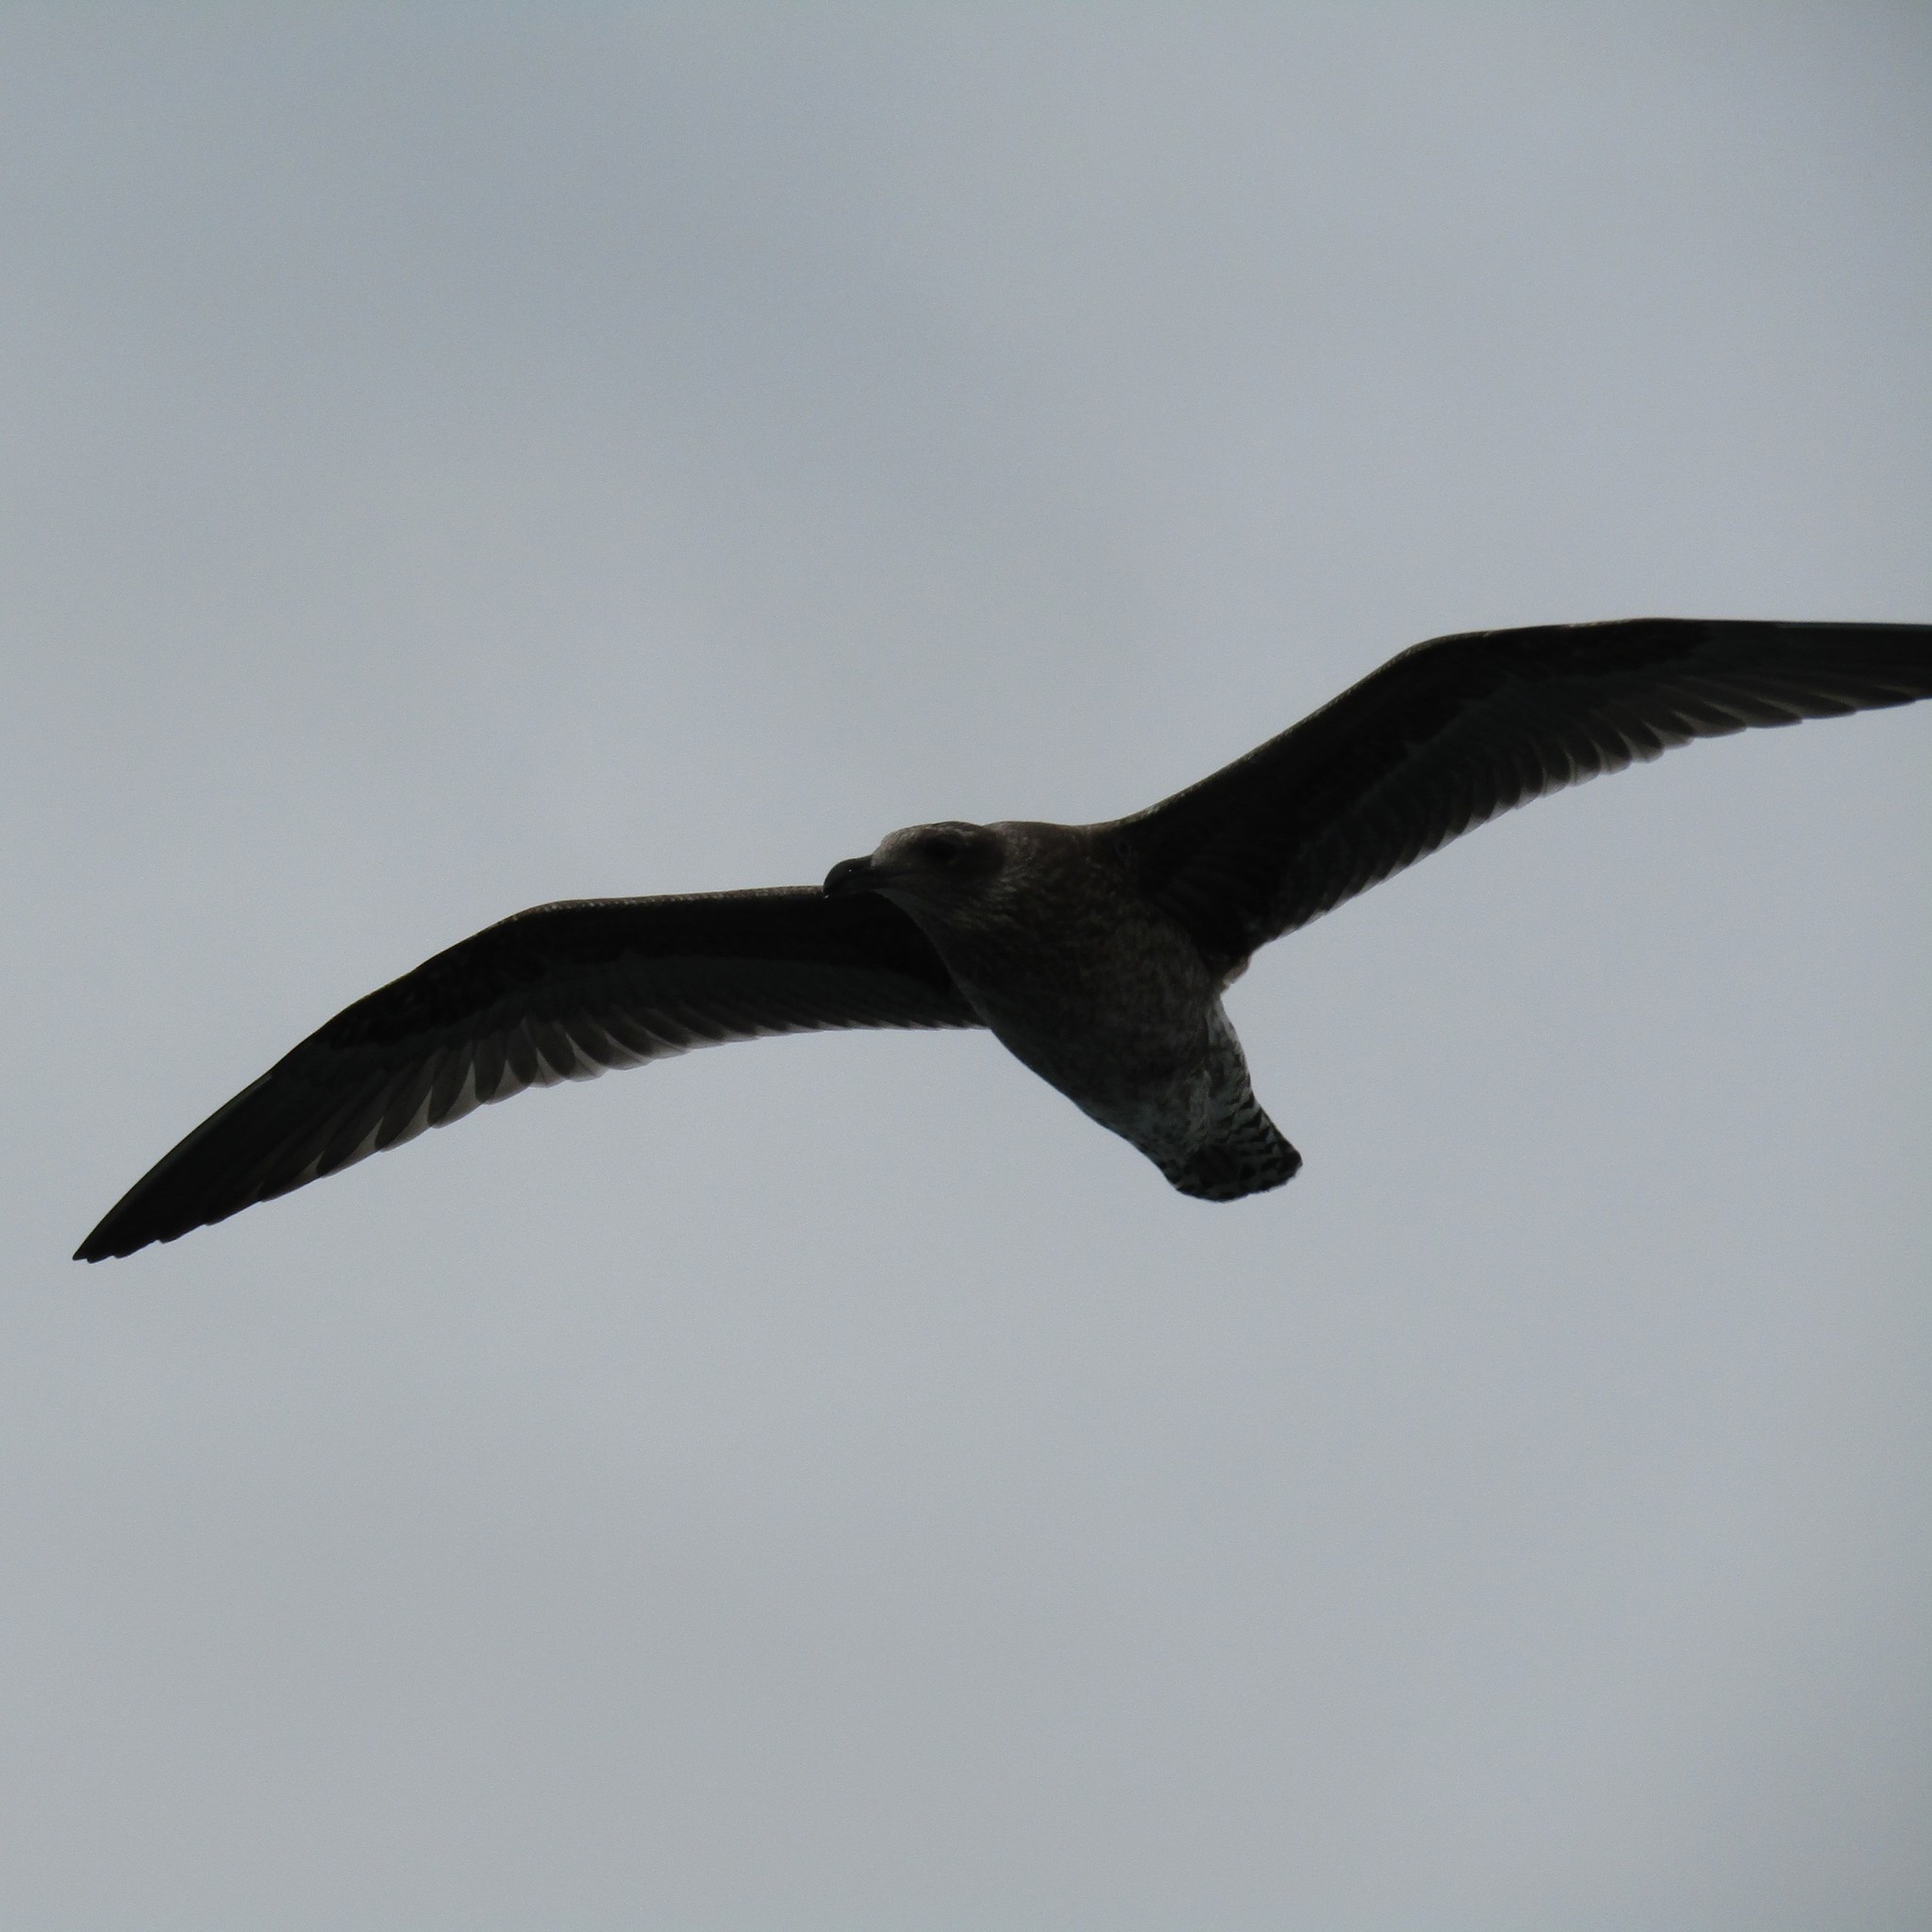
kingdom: Animalia
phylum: Chordata
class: Aves
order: Charadriiformes
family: Laridae
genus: Larus
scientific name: Larus dominicanus
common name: Kelp gull
